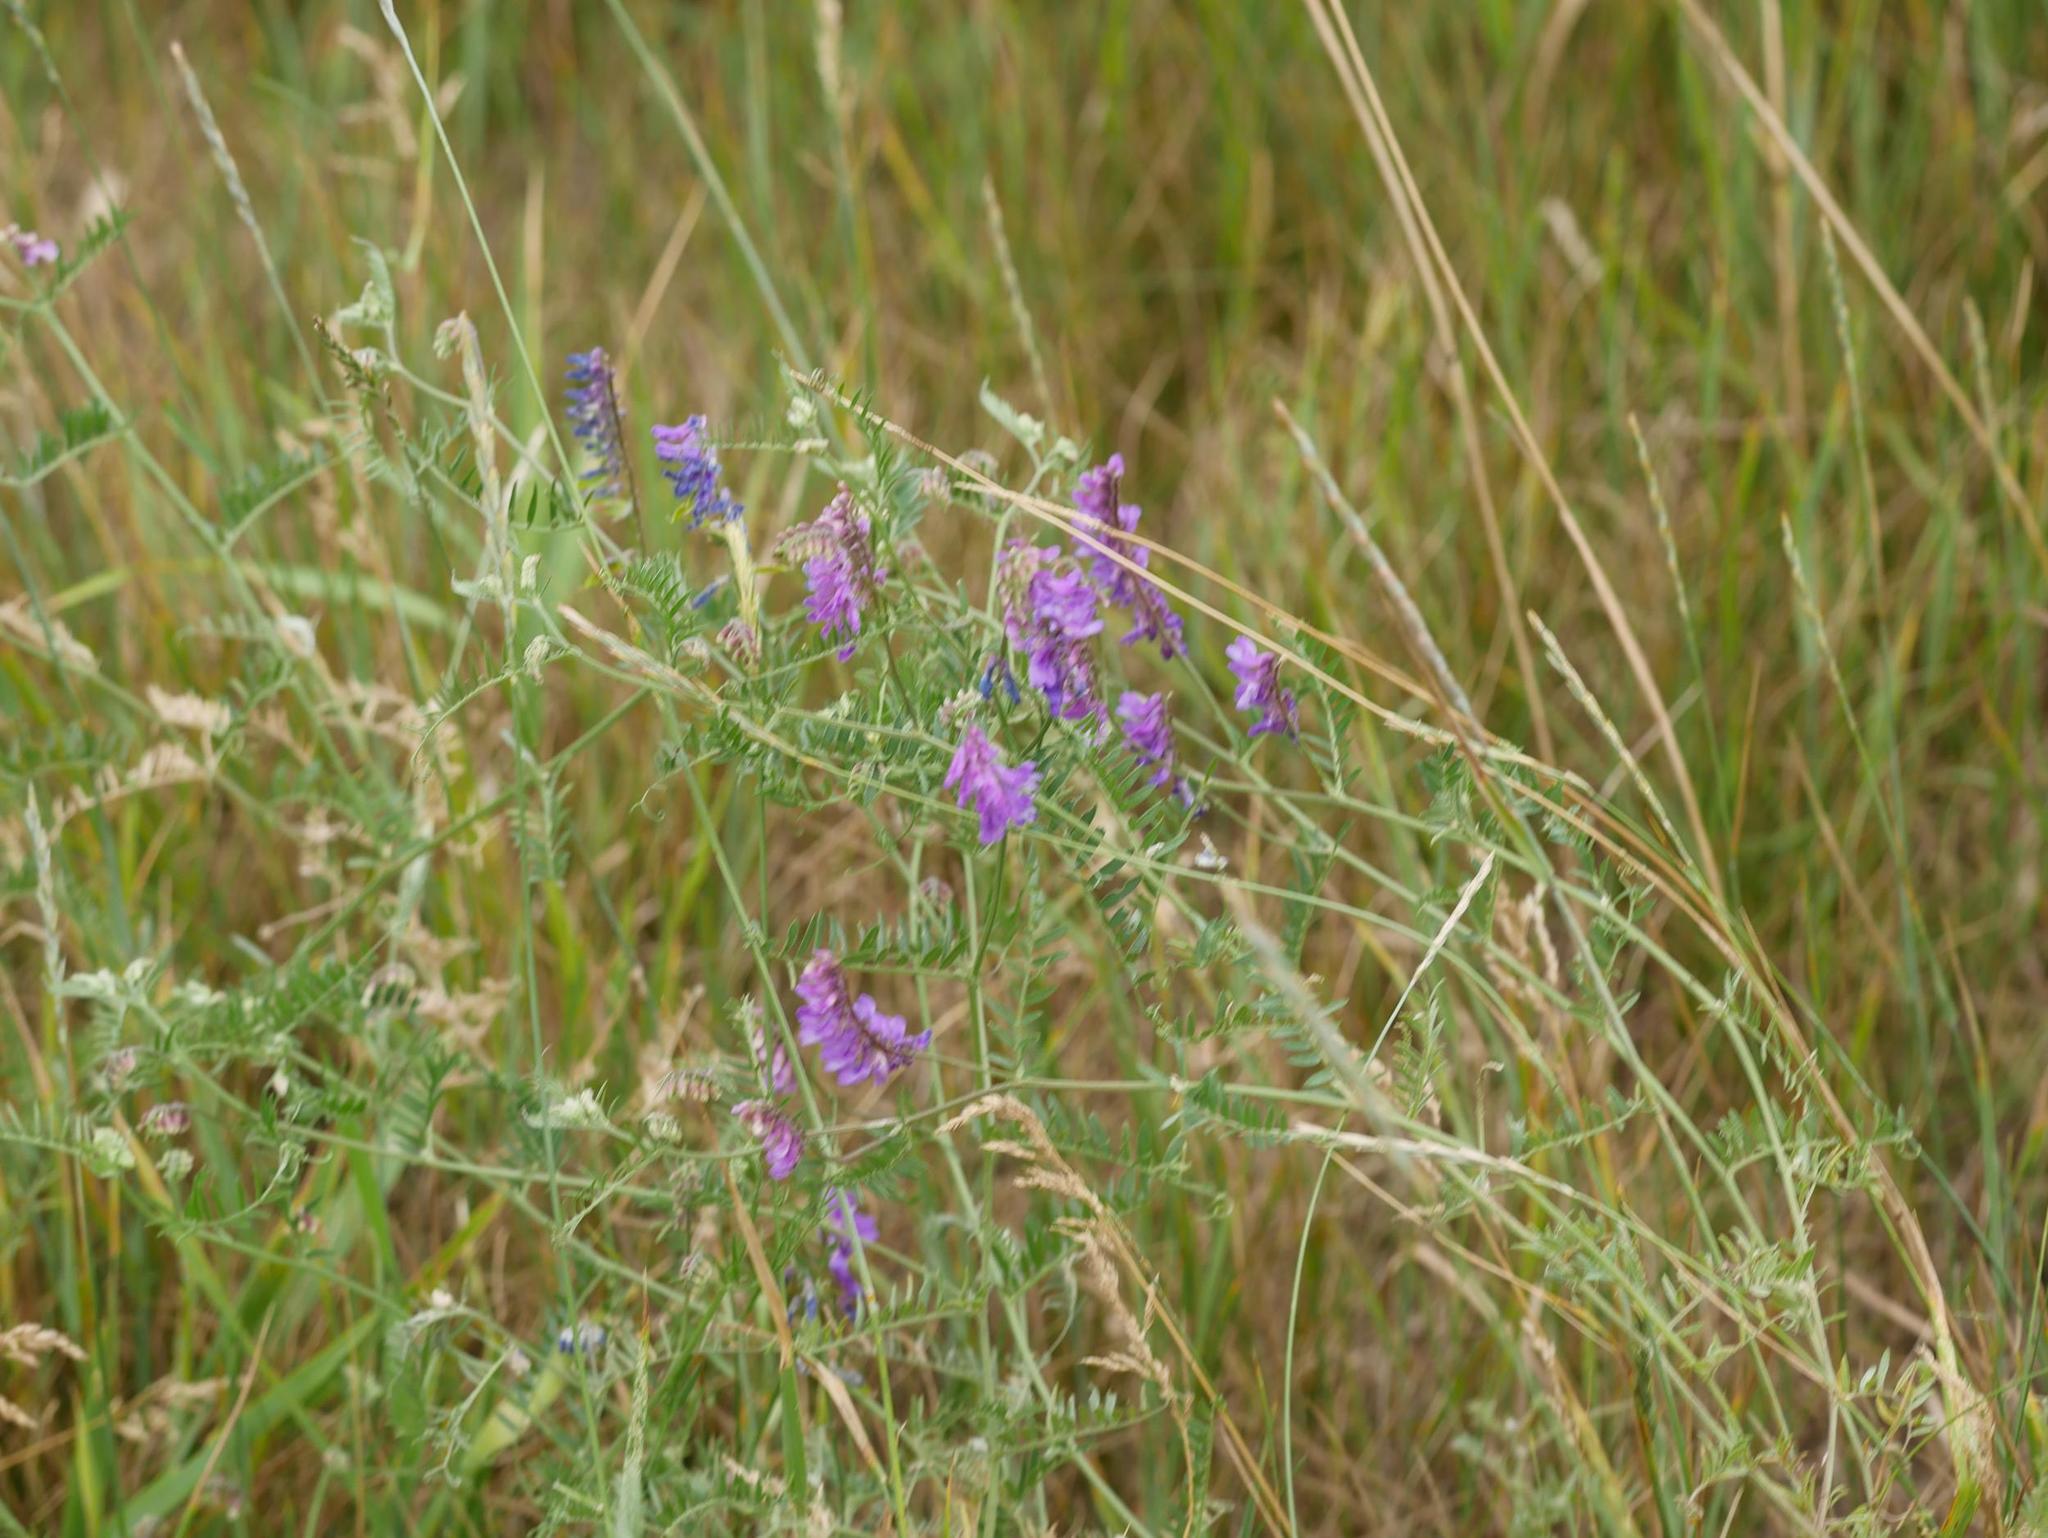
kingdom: Plantae
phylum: Tracheophyta
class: Magnoliopsida
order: Fabales
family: Fabaceae
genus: Vicia
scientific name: Vicia cracca
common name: Bird vetch
